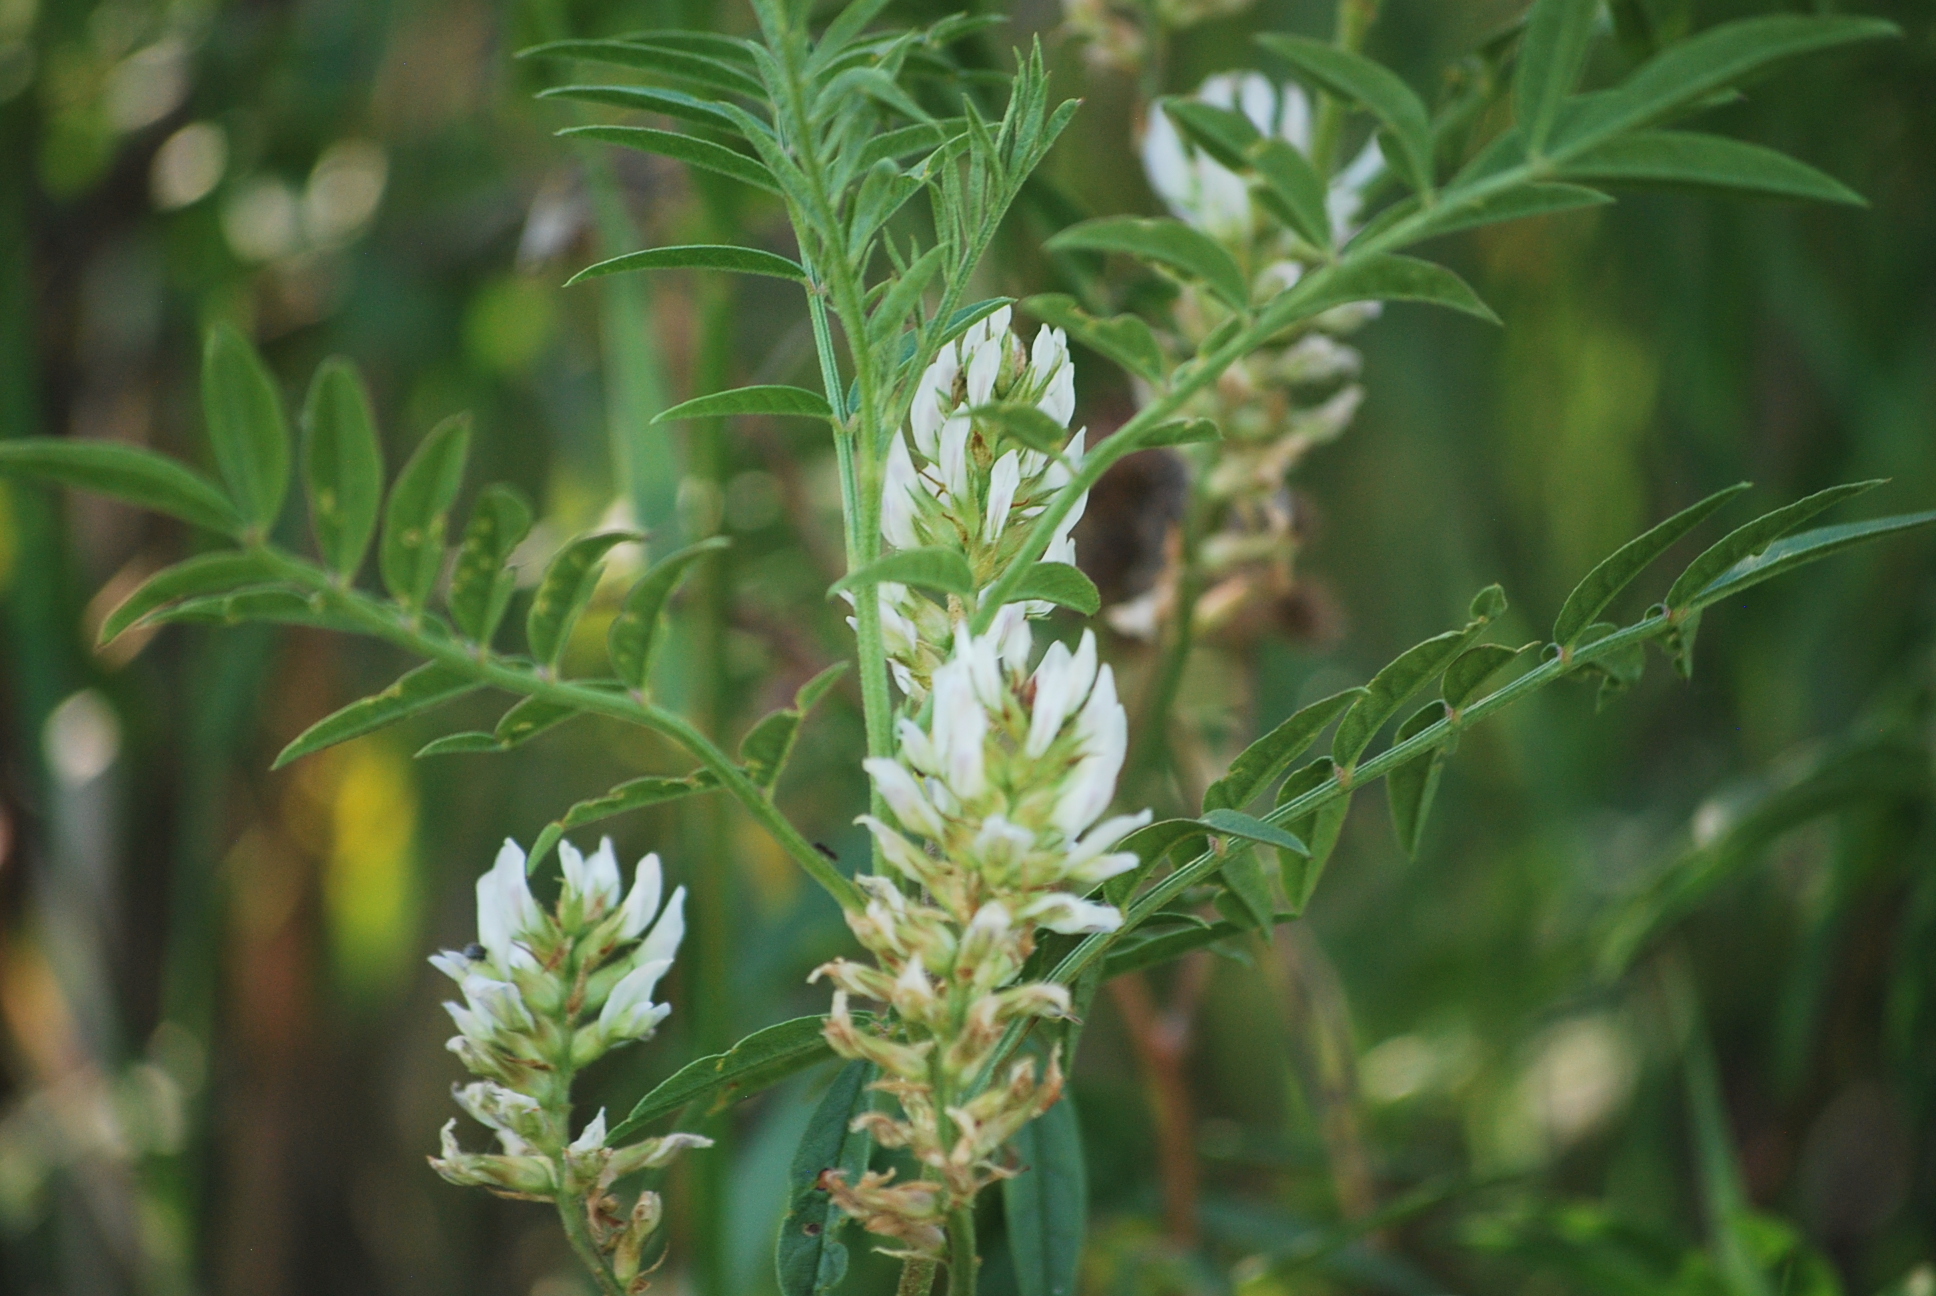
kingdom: Plantae
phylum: Tracheophyta
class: Magnoliopsida
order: Fabales
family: Fabaceae
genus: Glycyrrhiza
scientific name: Glycyrrhiza lepidota
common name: American liquorice
